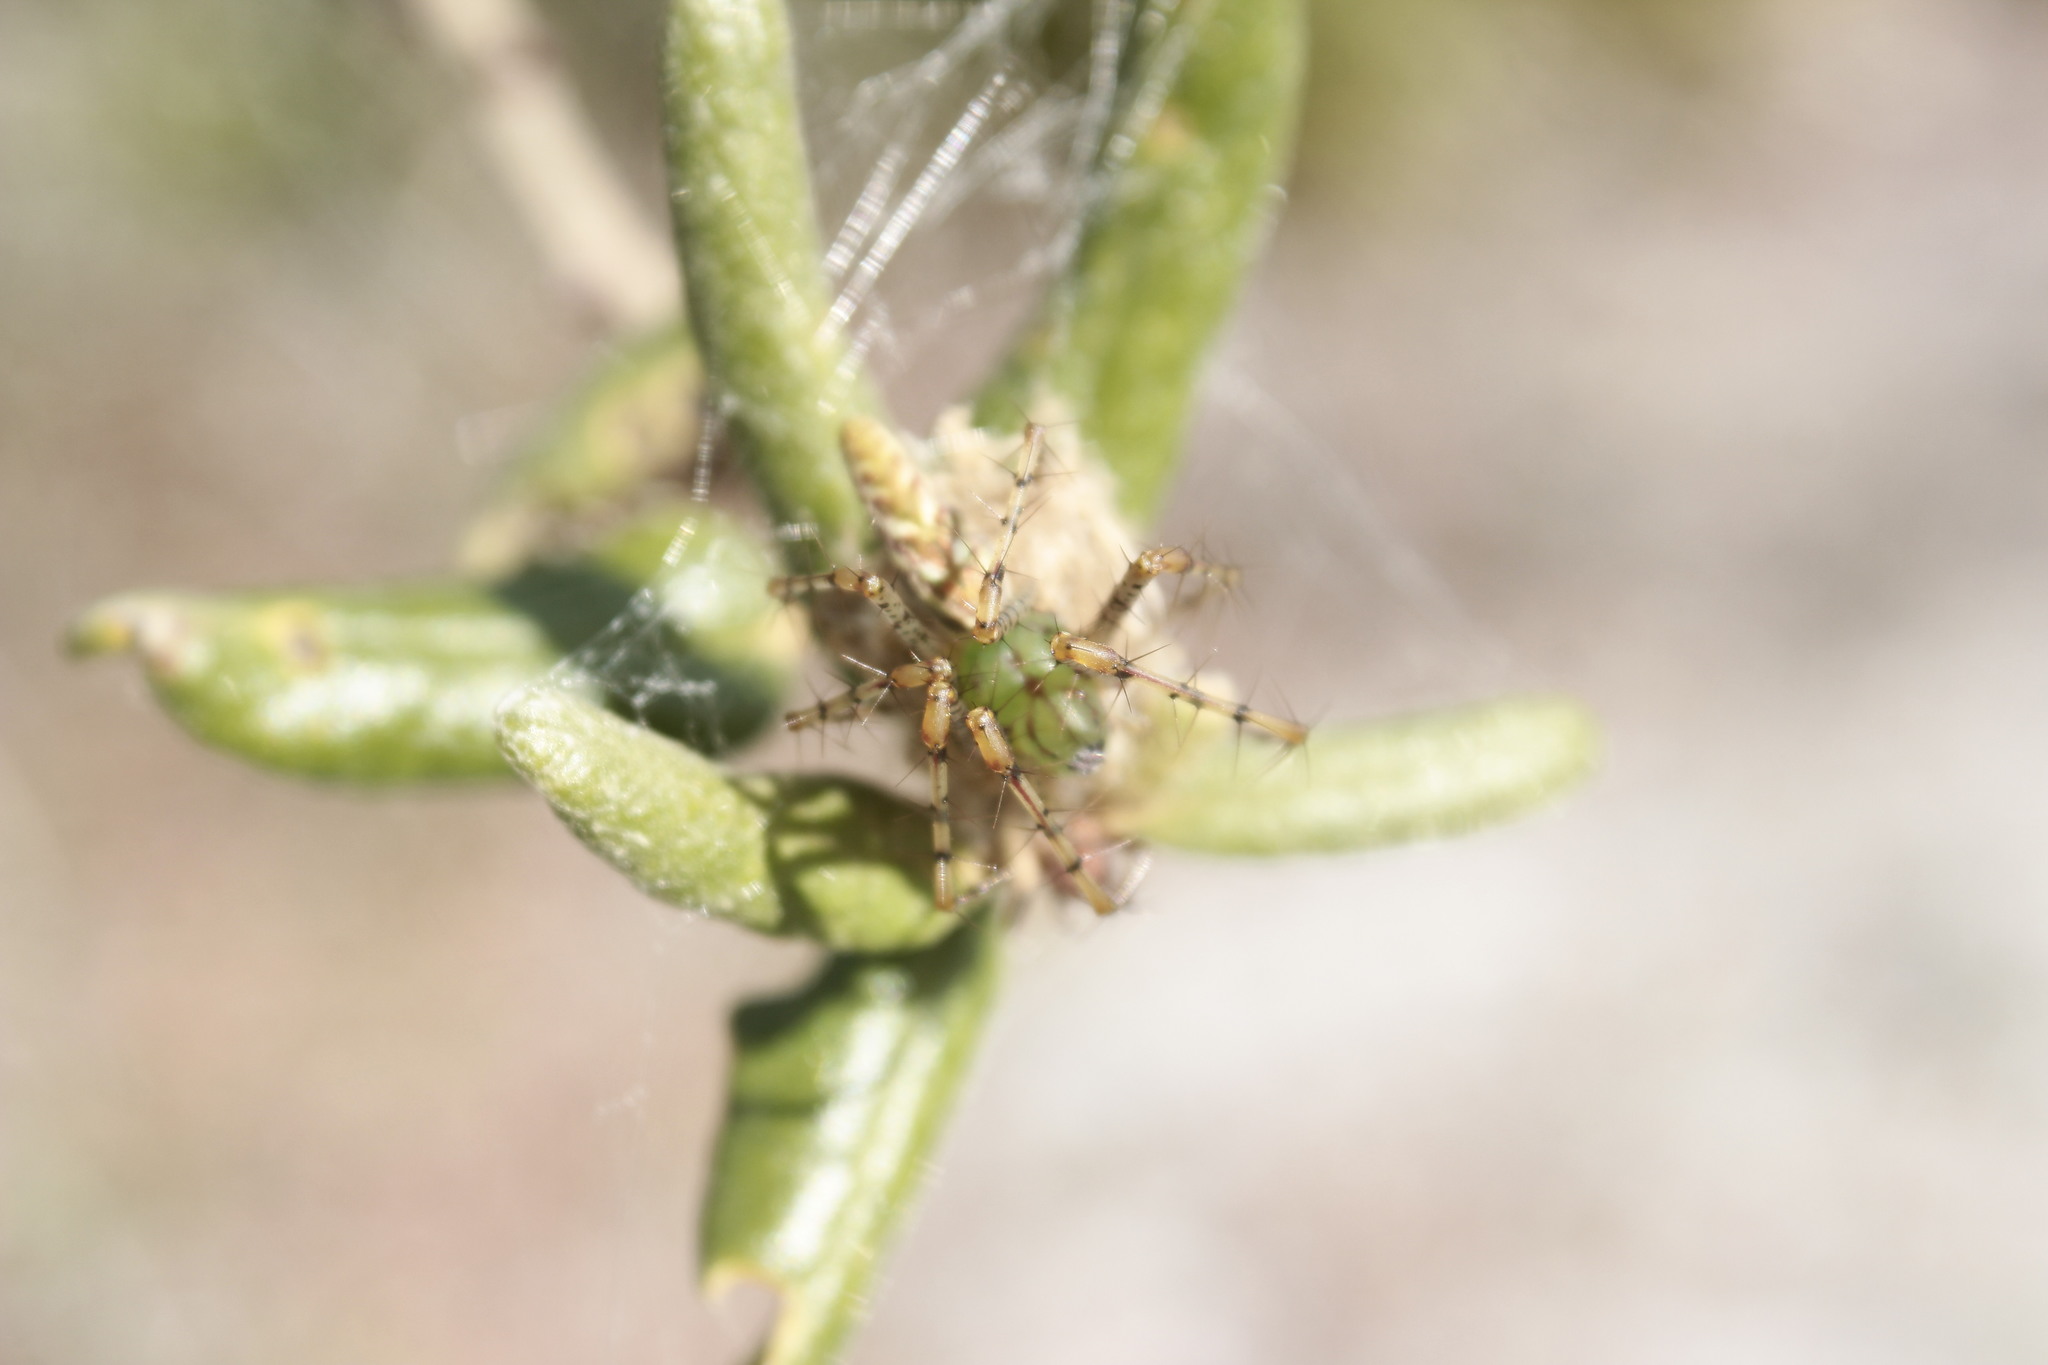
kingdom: Animalia
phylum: Arthropoda
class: Arachnida
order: Araneae
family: Oxyopidae
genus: Peucetia
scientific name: Peucetia viridans
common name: Lynx spiders
